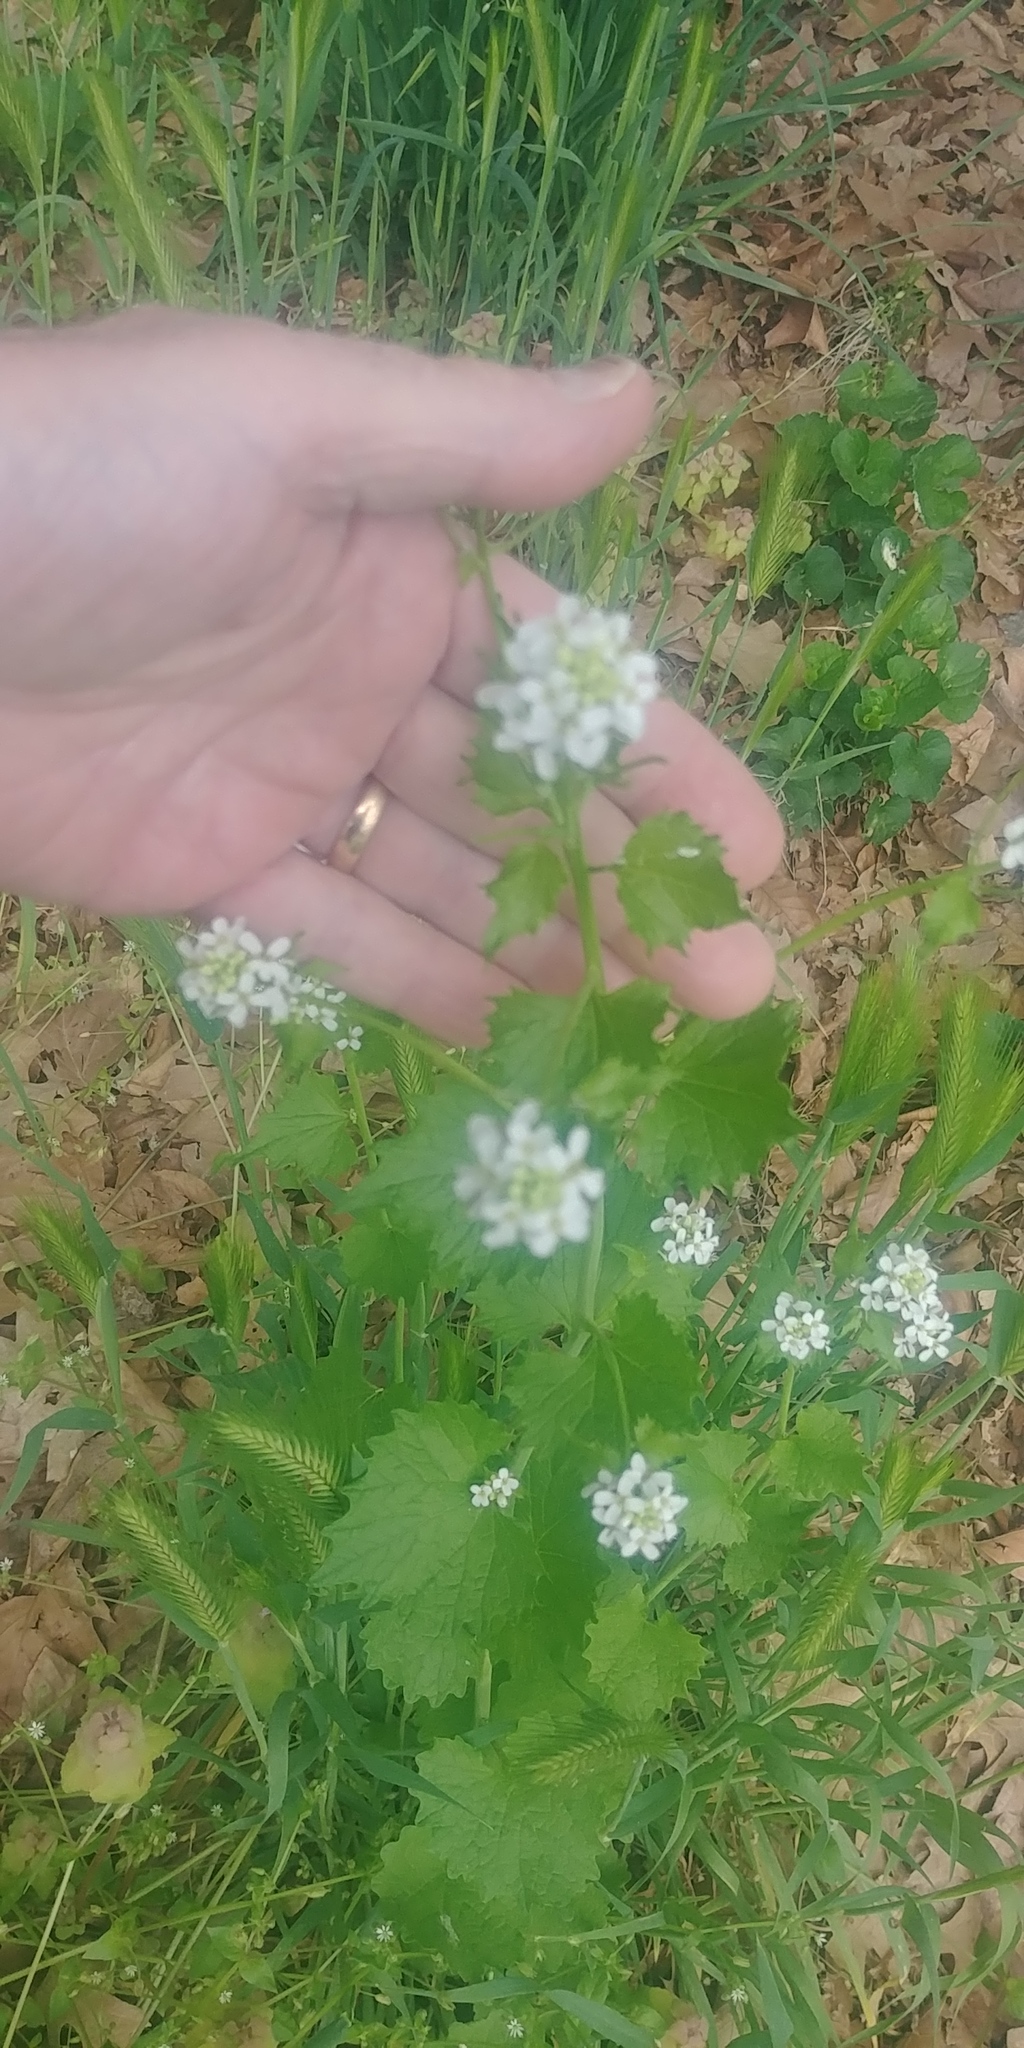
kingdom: Plantae
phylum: Tracheophyta
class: Magnoliopsida
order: Brassicales
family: Brassicaceae
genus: Alliaria
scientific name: Alliaria petiolata
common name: Garlic mustard
